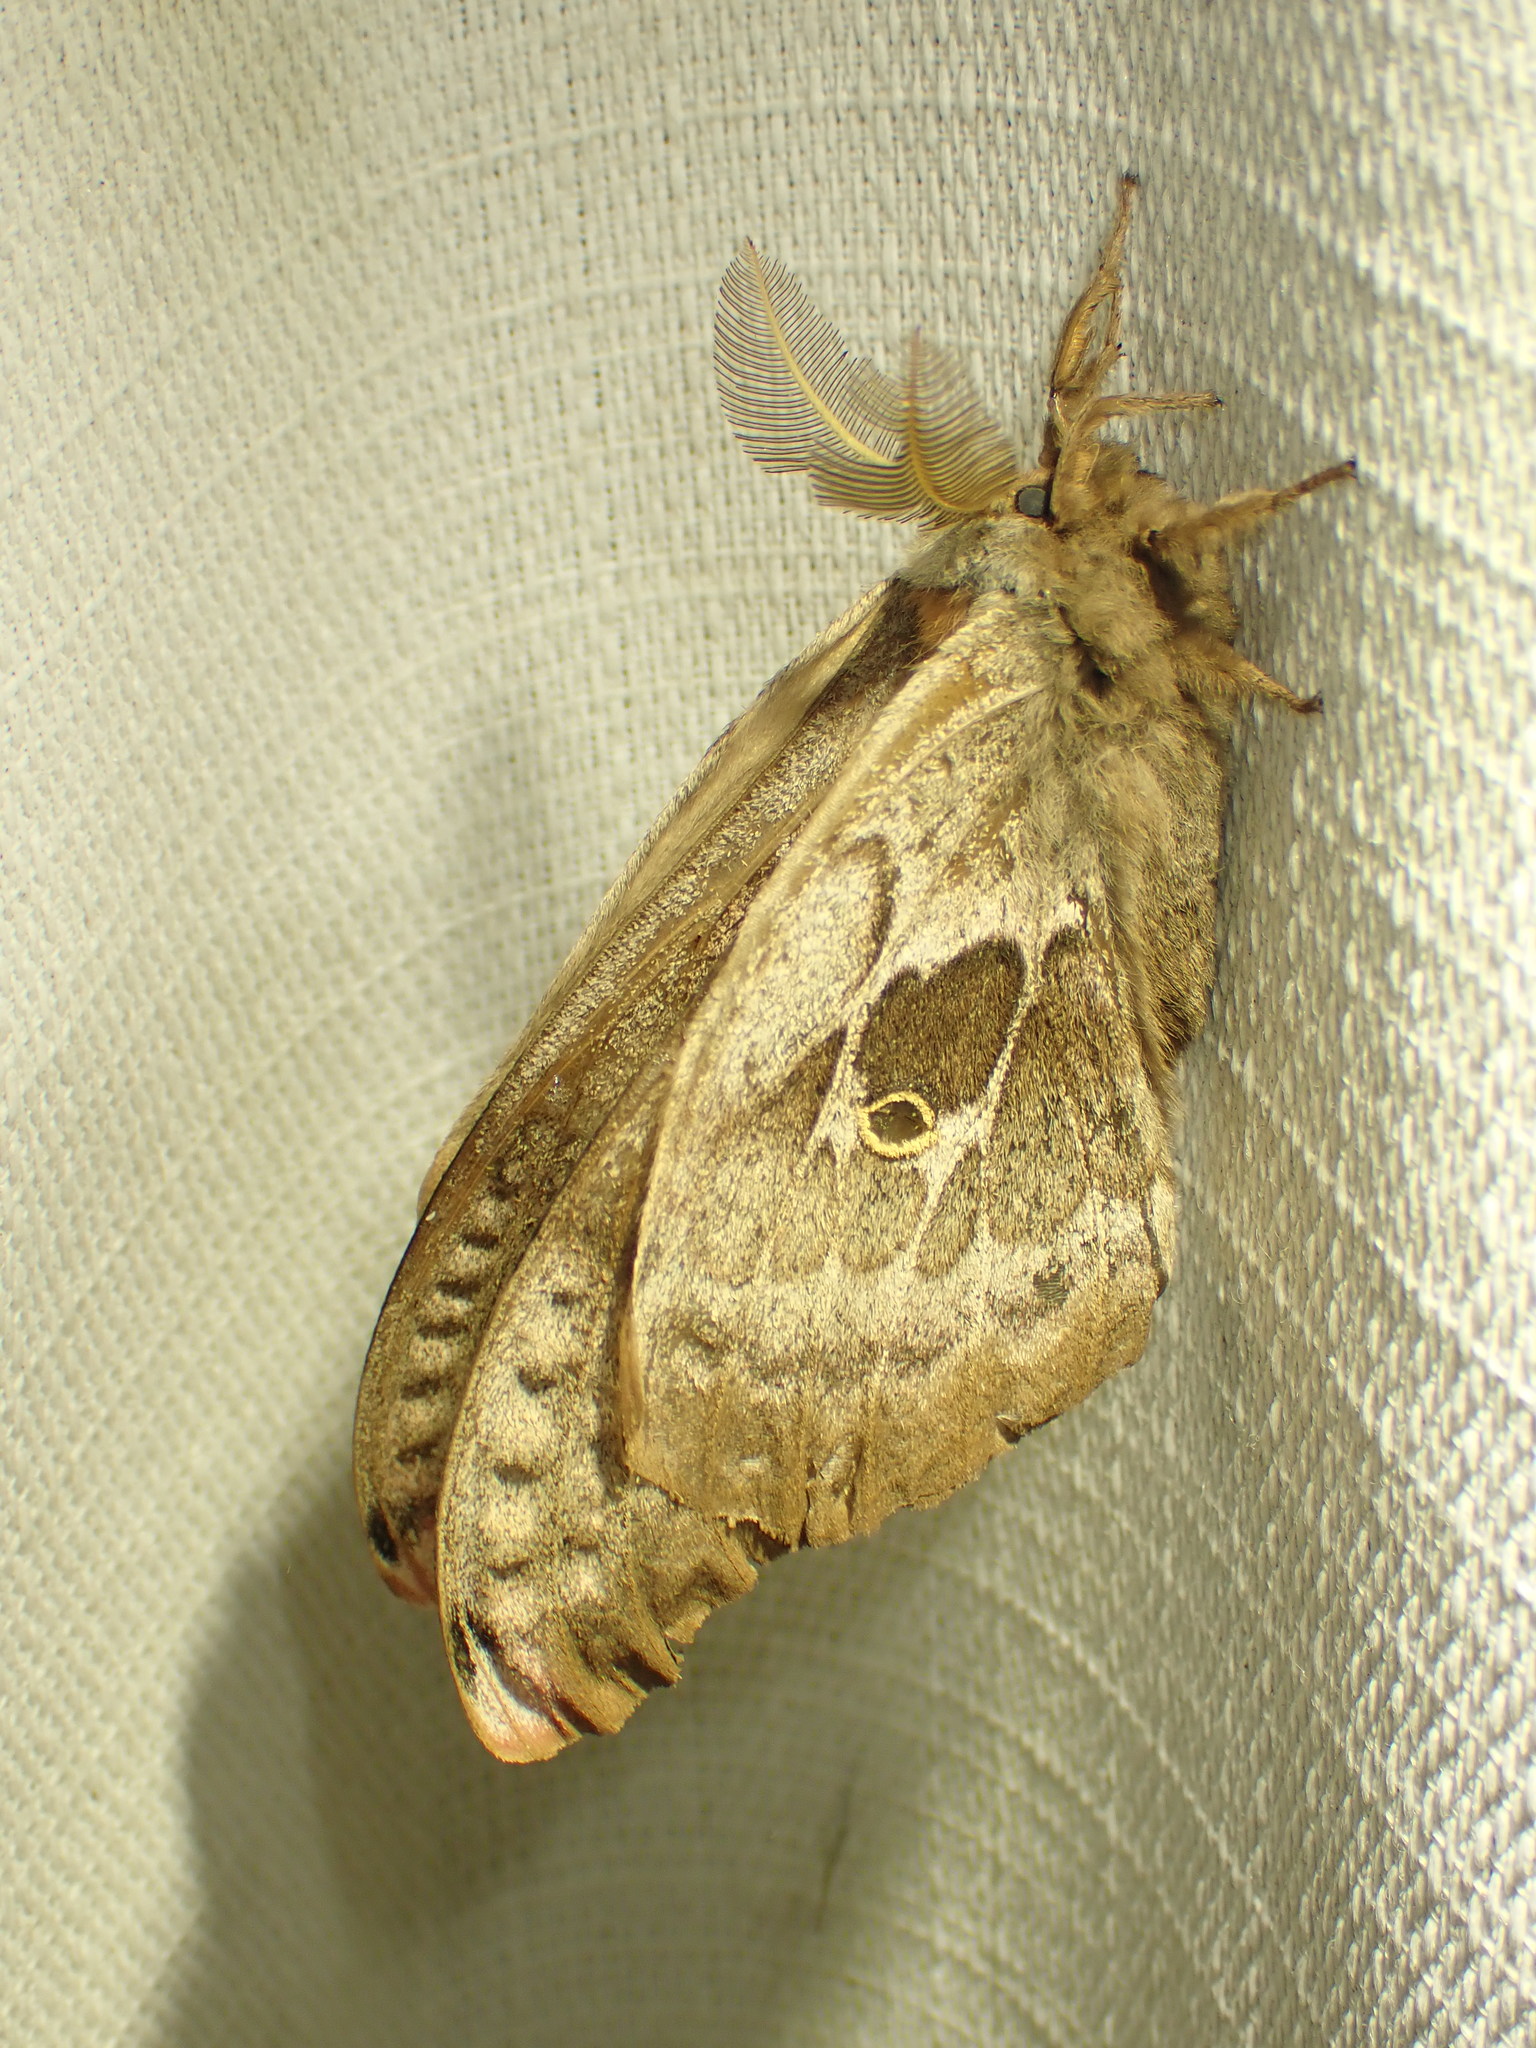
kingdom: Animalia
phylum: Arthropoda
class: Insecta
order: Lepidoptera
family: Saturniidae
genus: Antheraea
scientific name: Antheraea polyphemus
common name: Polyphemus moth
